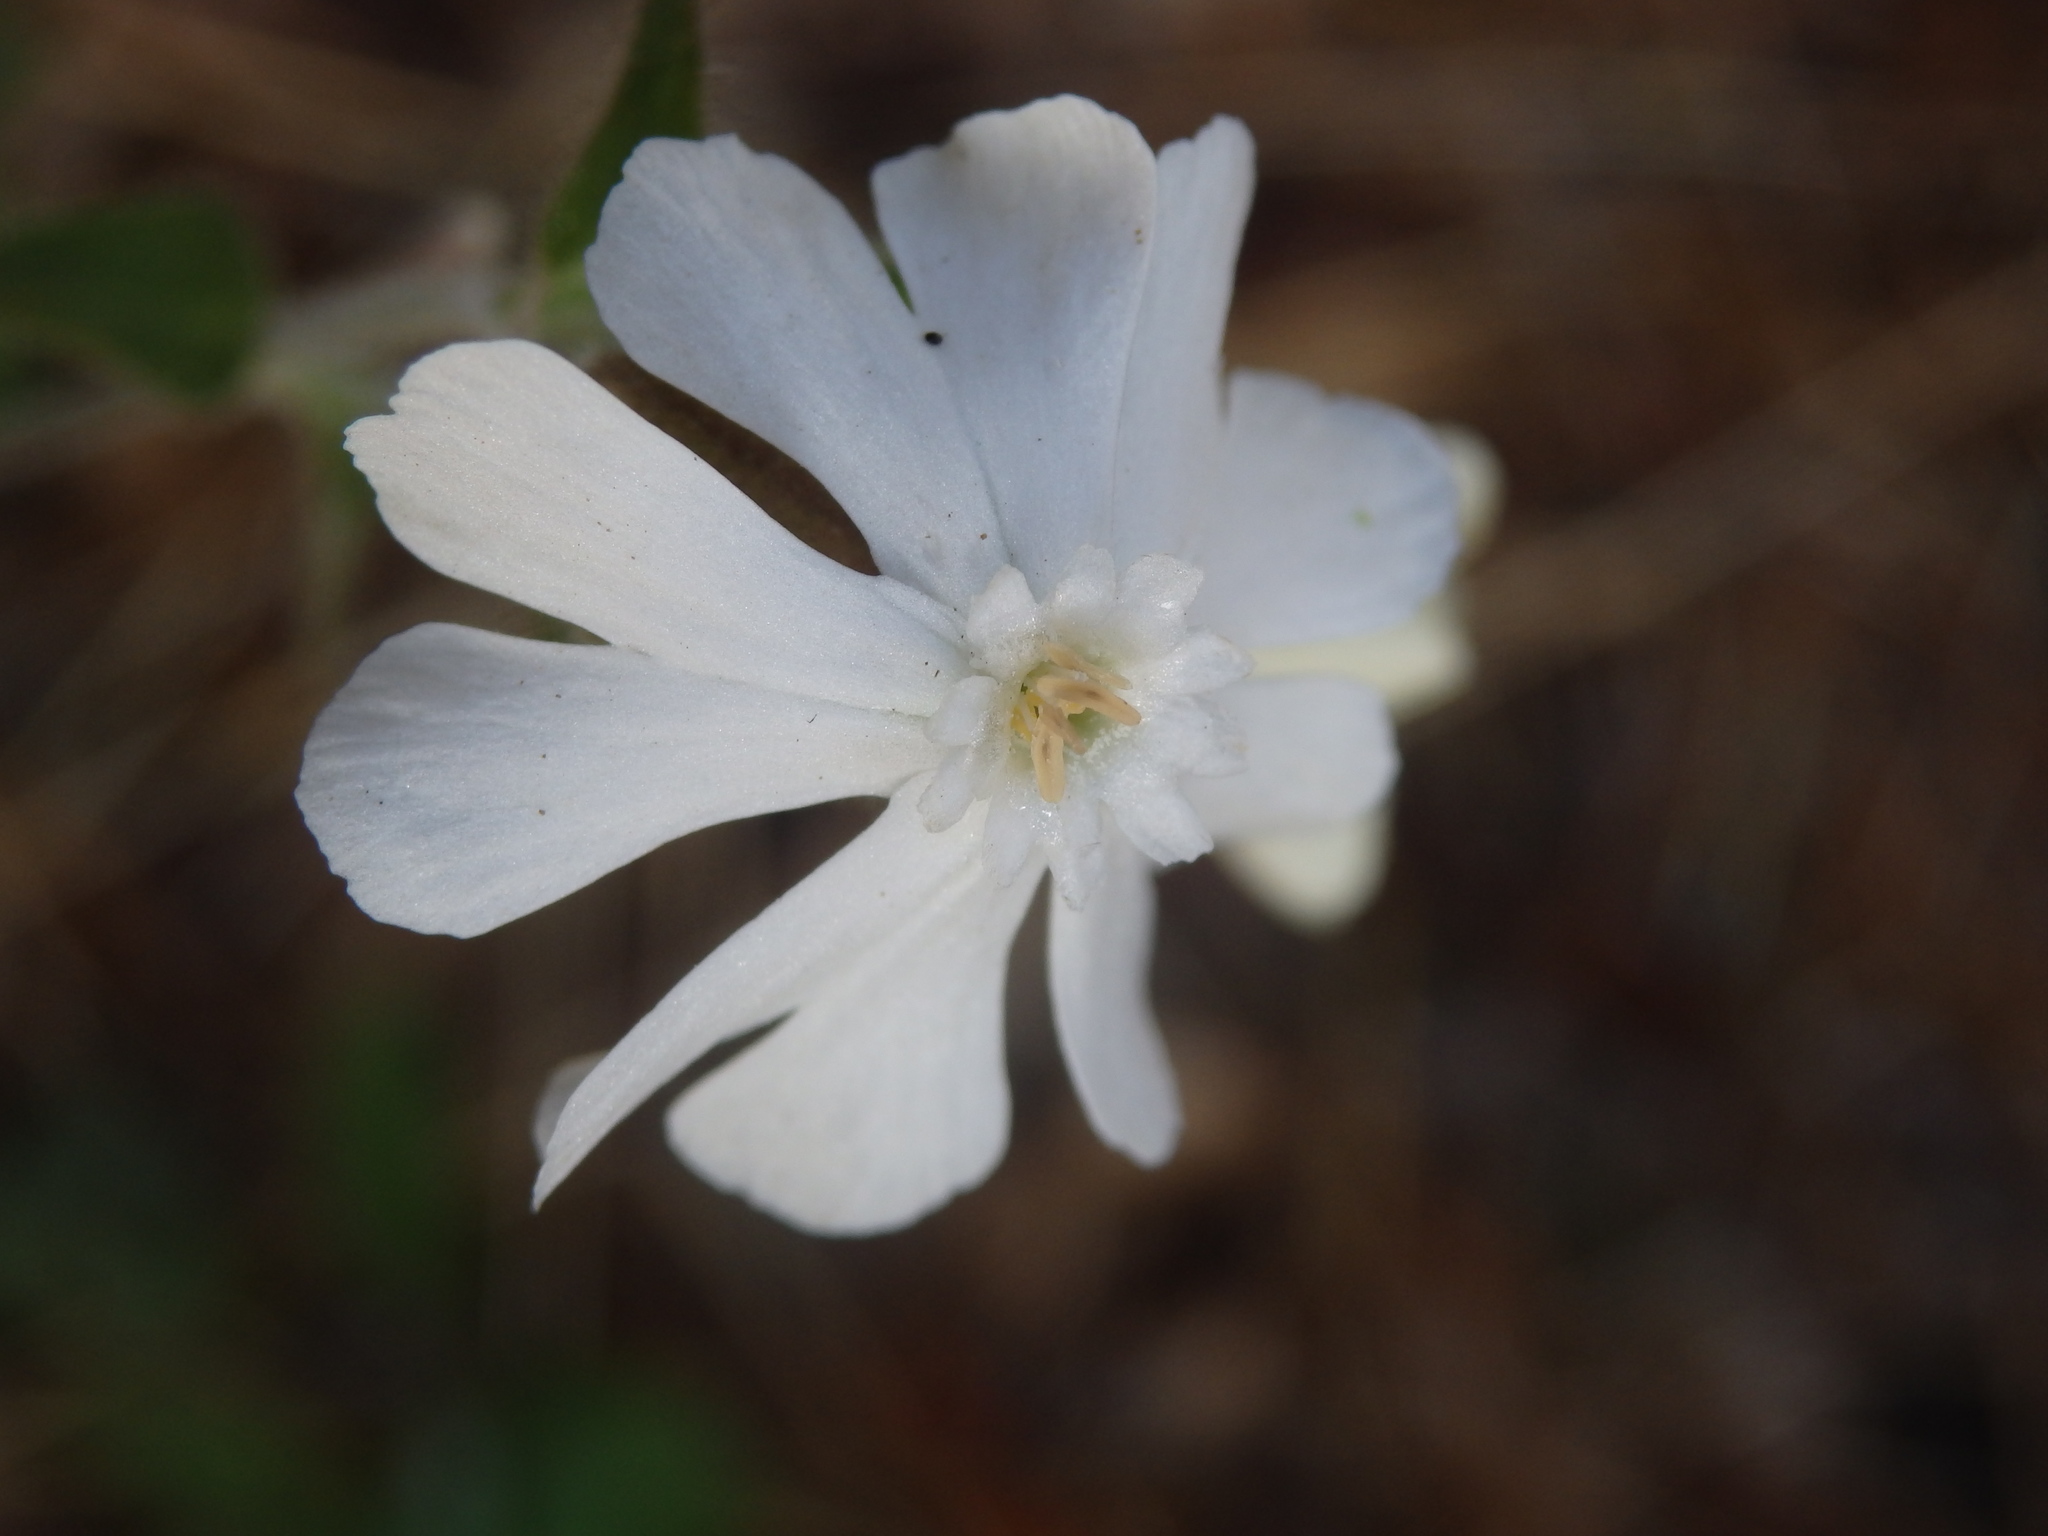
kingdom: Plantae
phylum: Tracheophyta
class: Magnoliopsida
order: Caryophyllales
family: Caryophyllaceae
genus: Silene
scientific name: Silene latifolia
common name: White campion
